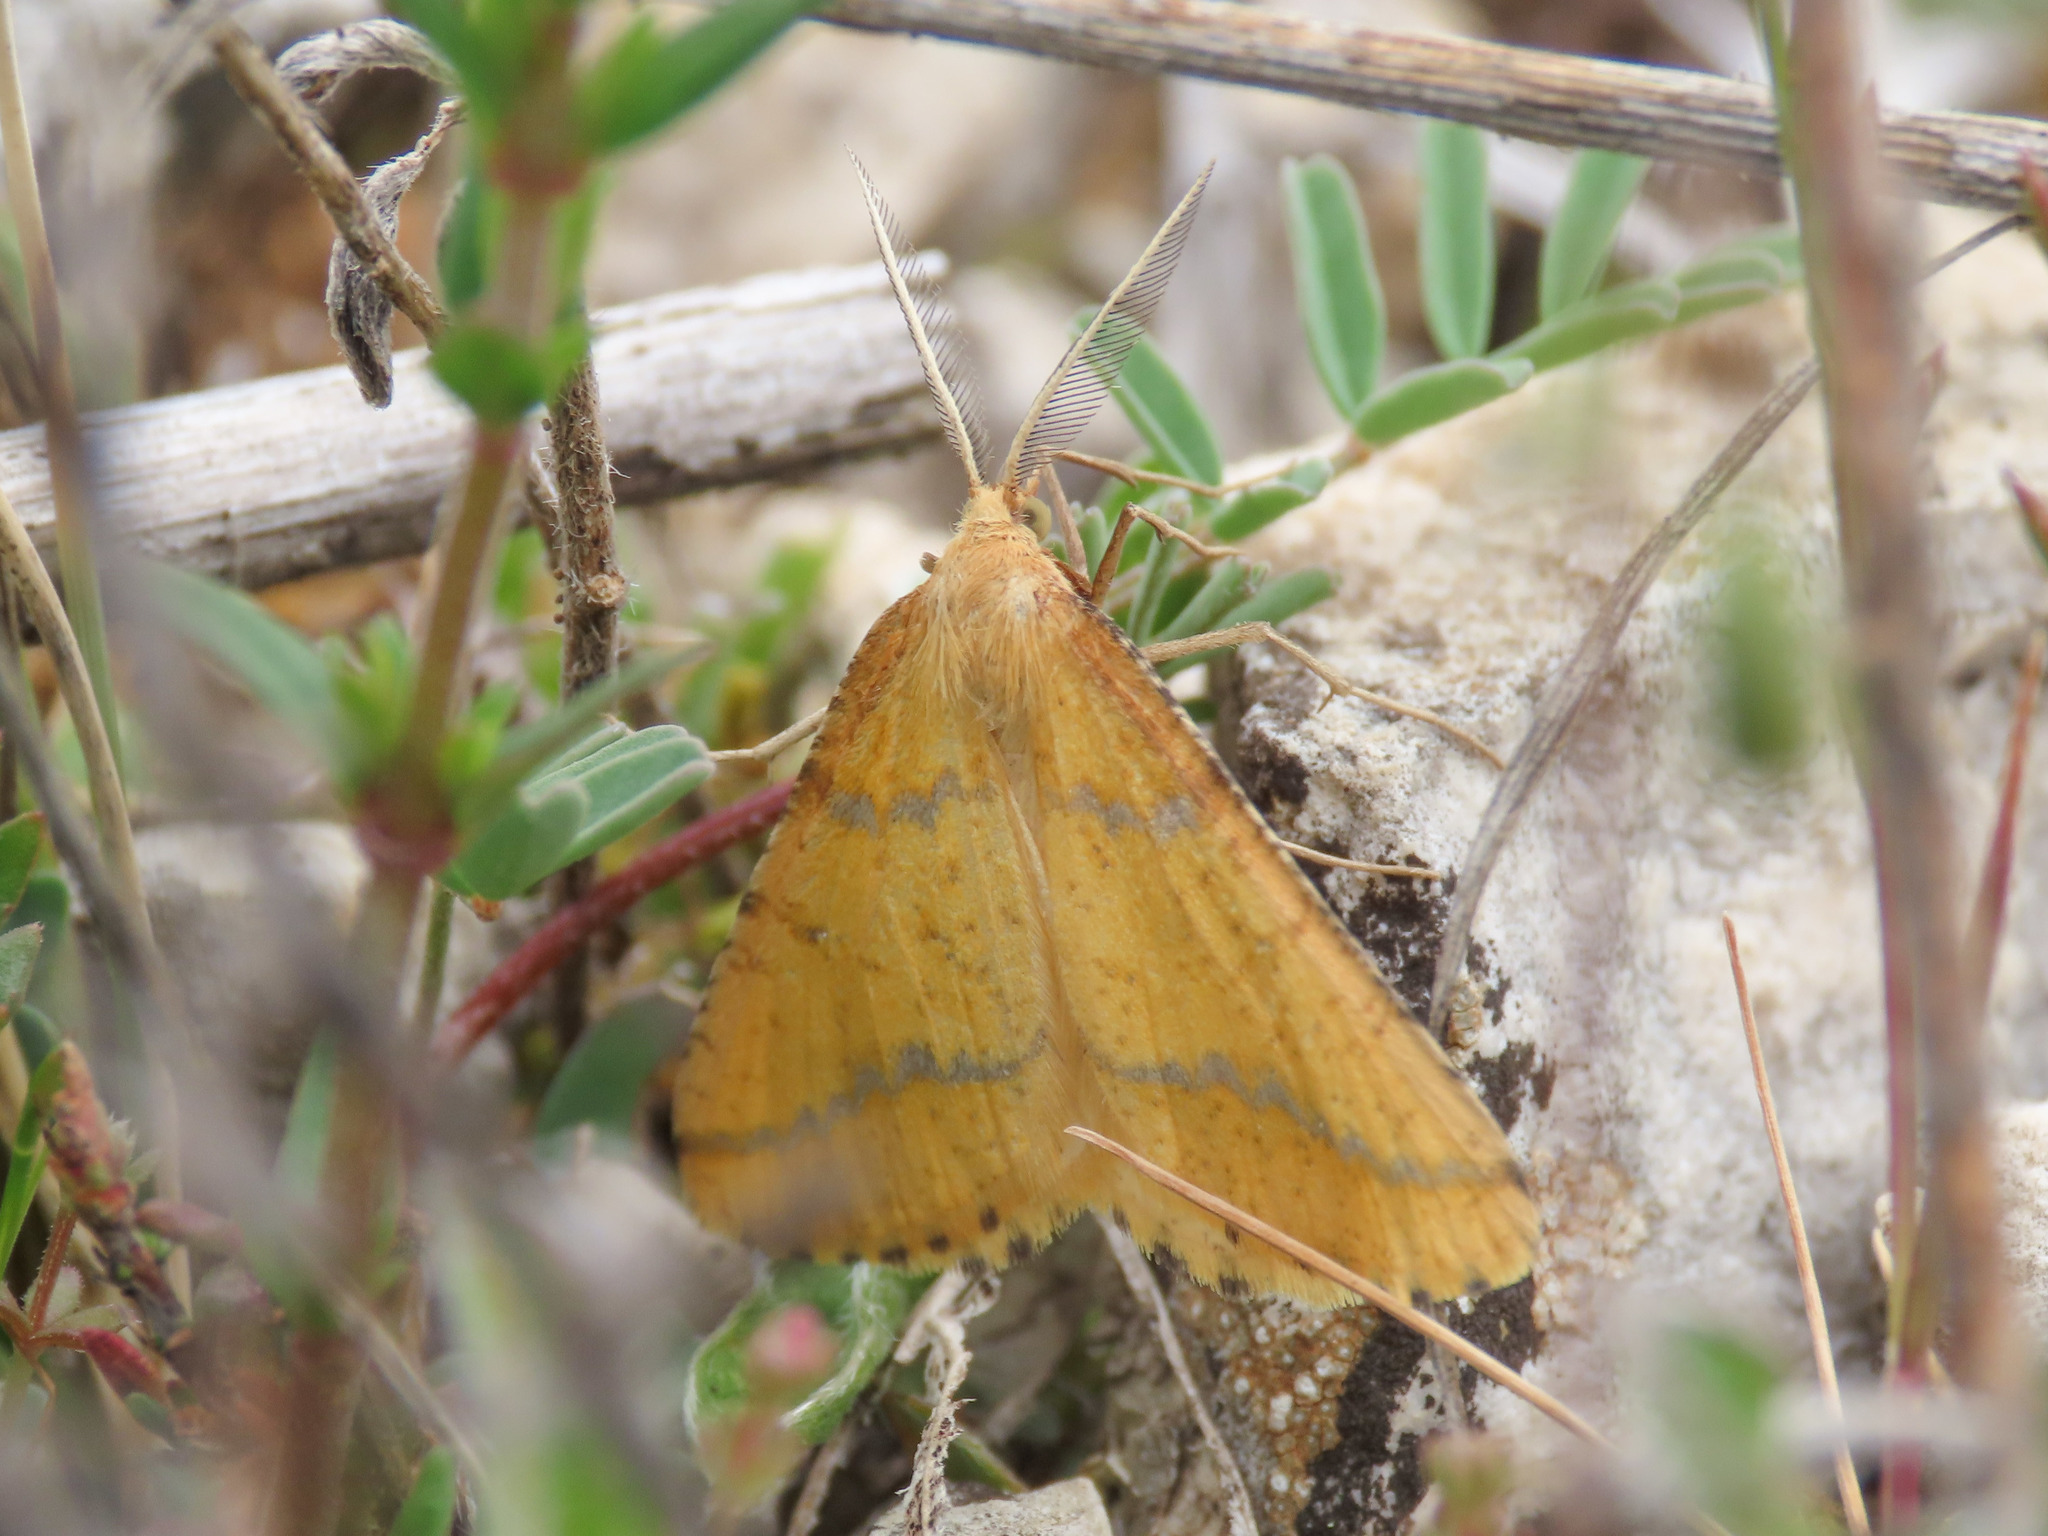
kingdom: Animalia
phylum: Arthropoda
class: Insecta
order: Lepidoptera
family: Geometridae
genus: Aspitates
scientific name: Aspitates ochrearia
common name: Yellow belle
